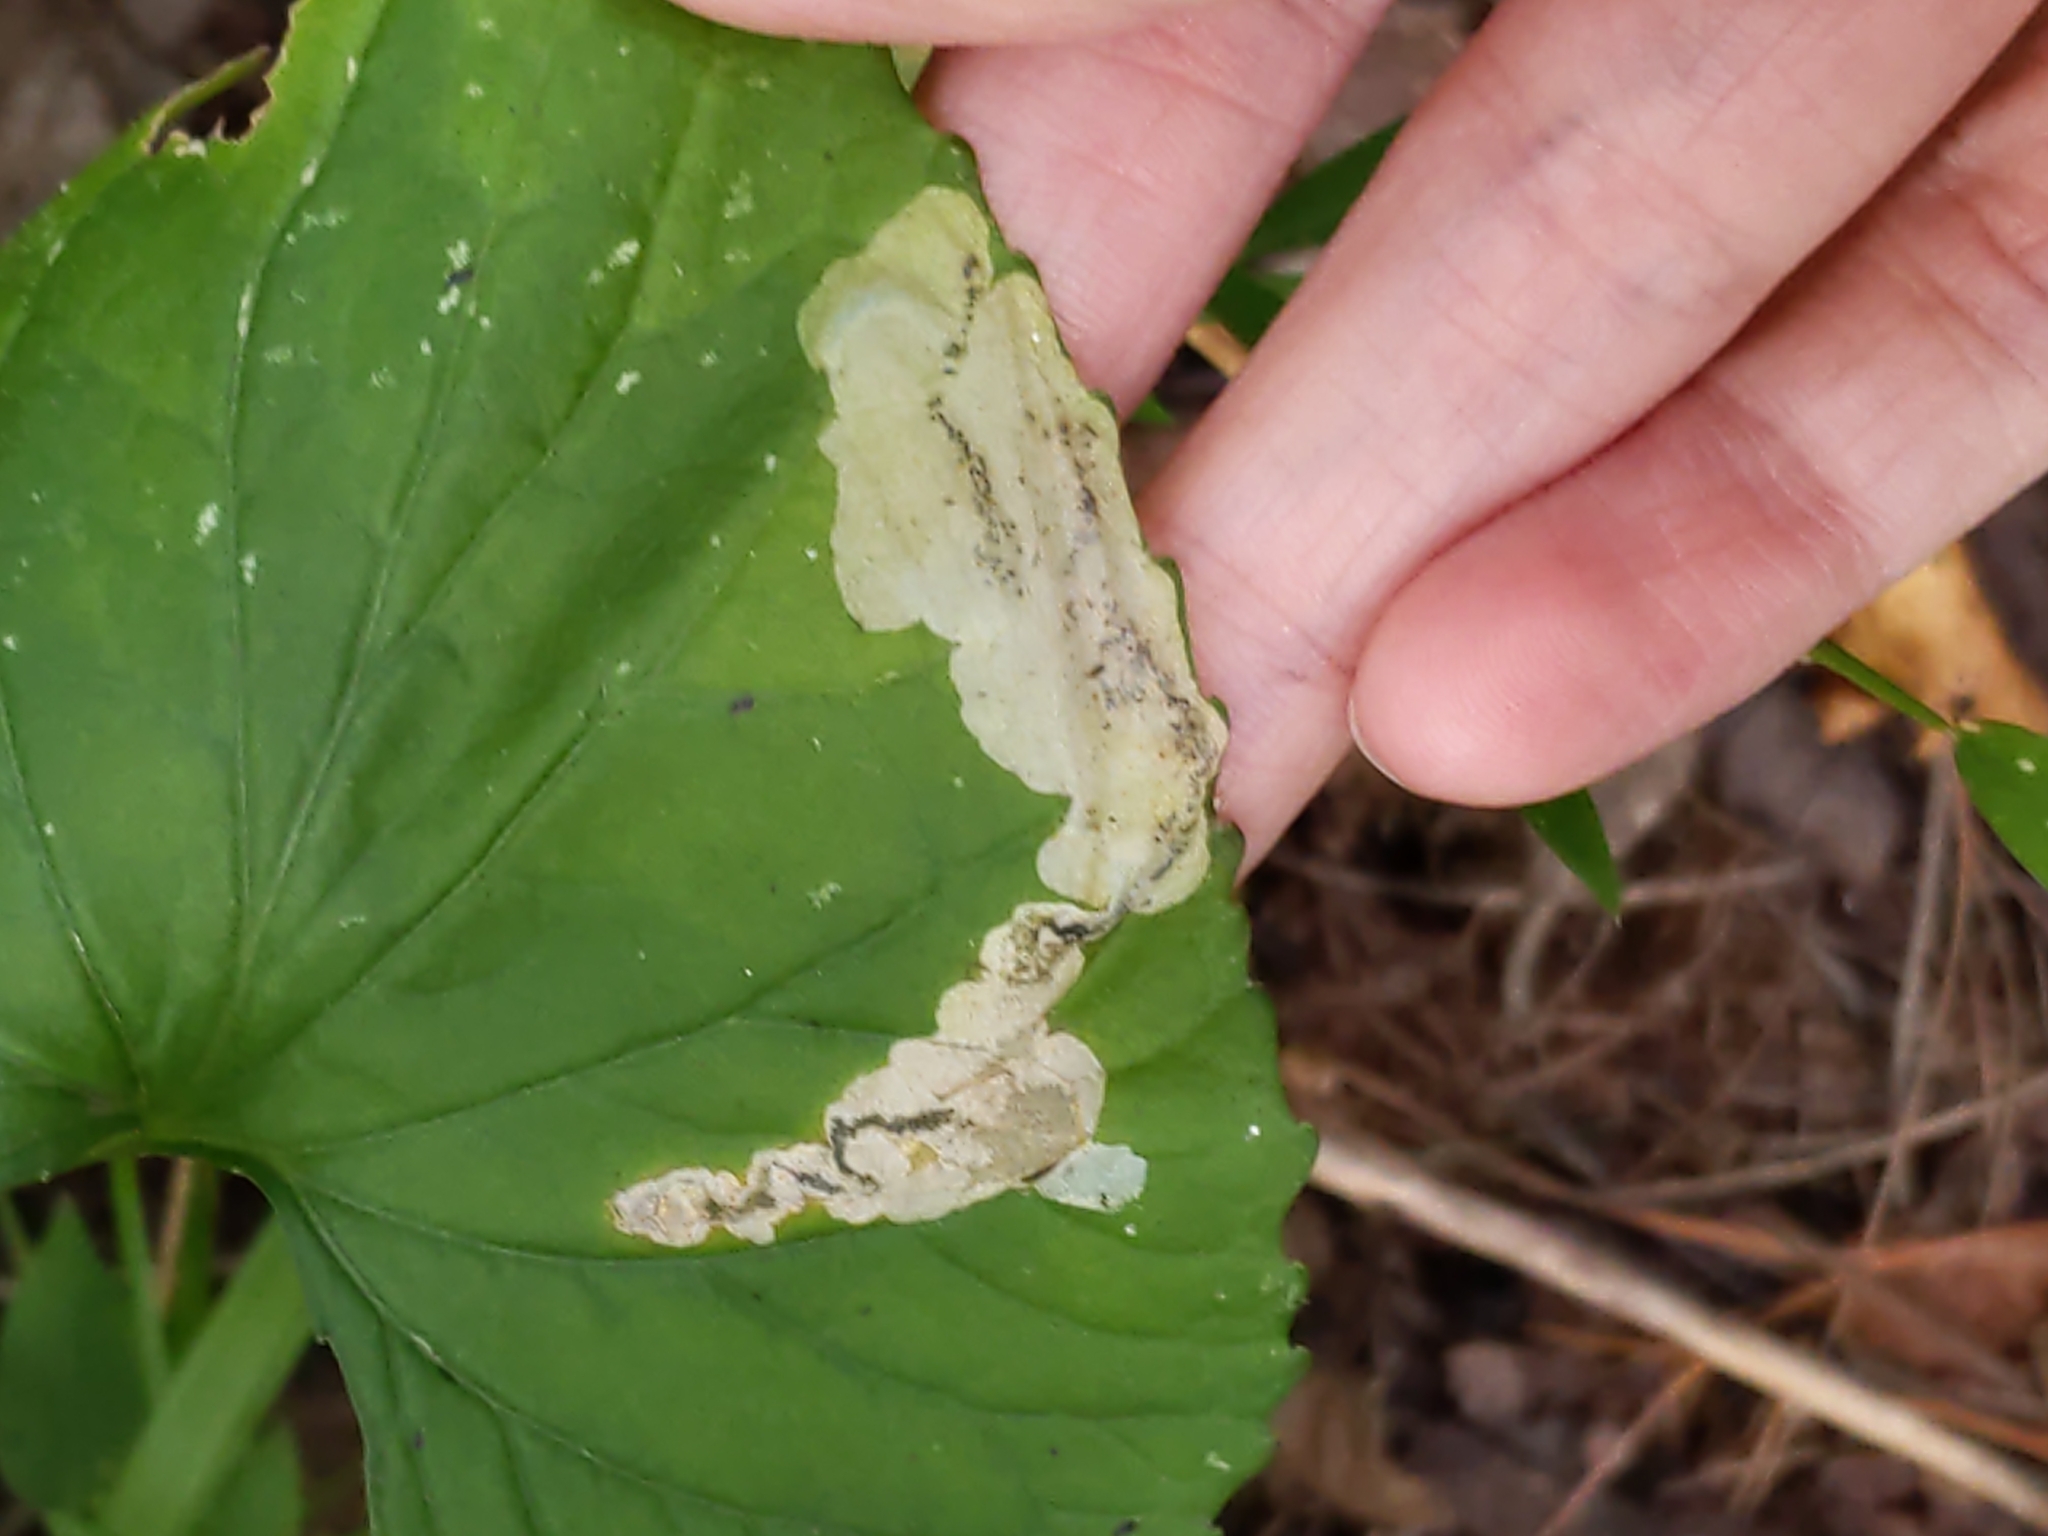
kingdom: Animalia
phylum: Arthropoda
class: Insecta
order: Hymenoptera
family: Tenthredinidae
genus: Nefusa
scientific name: Nefusa ambigua
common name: Violet leafmining sawfly
